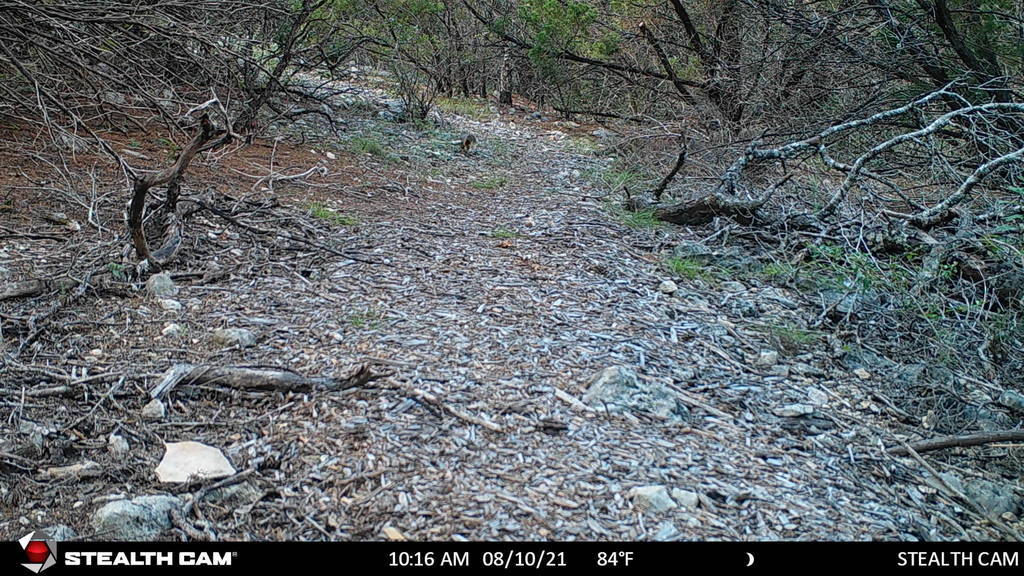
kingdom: Animalia
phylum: Chordata
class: Mammalia
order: Rodentia
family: Sciuridae
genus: Sciurus
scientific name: Sciurus niger
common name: Fox squirrel
